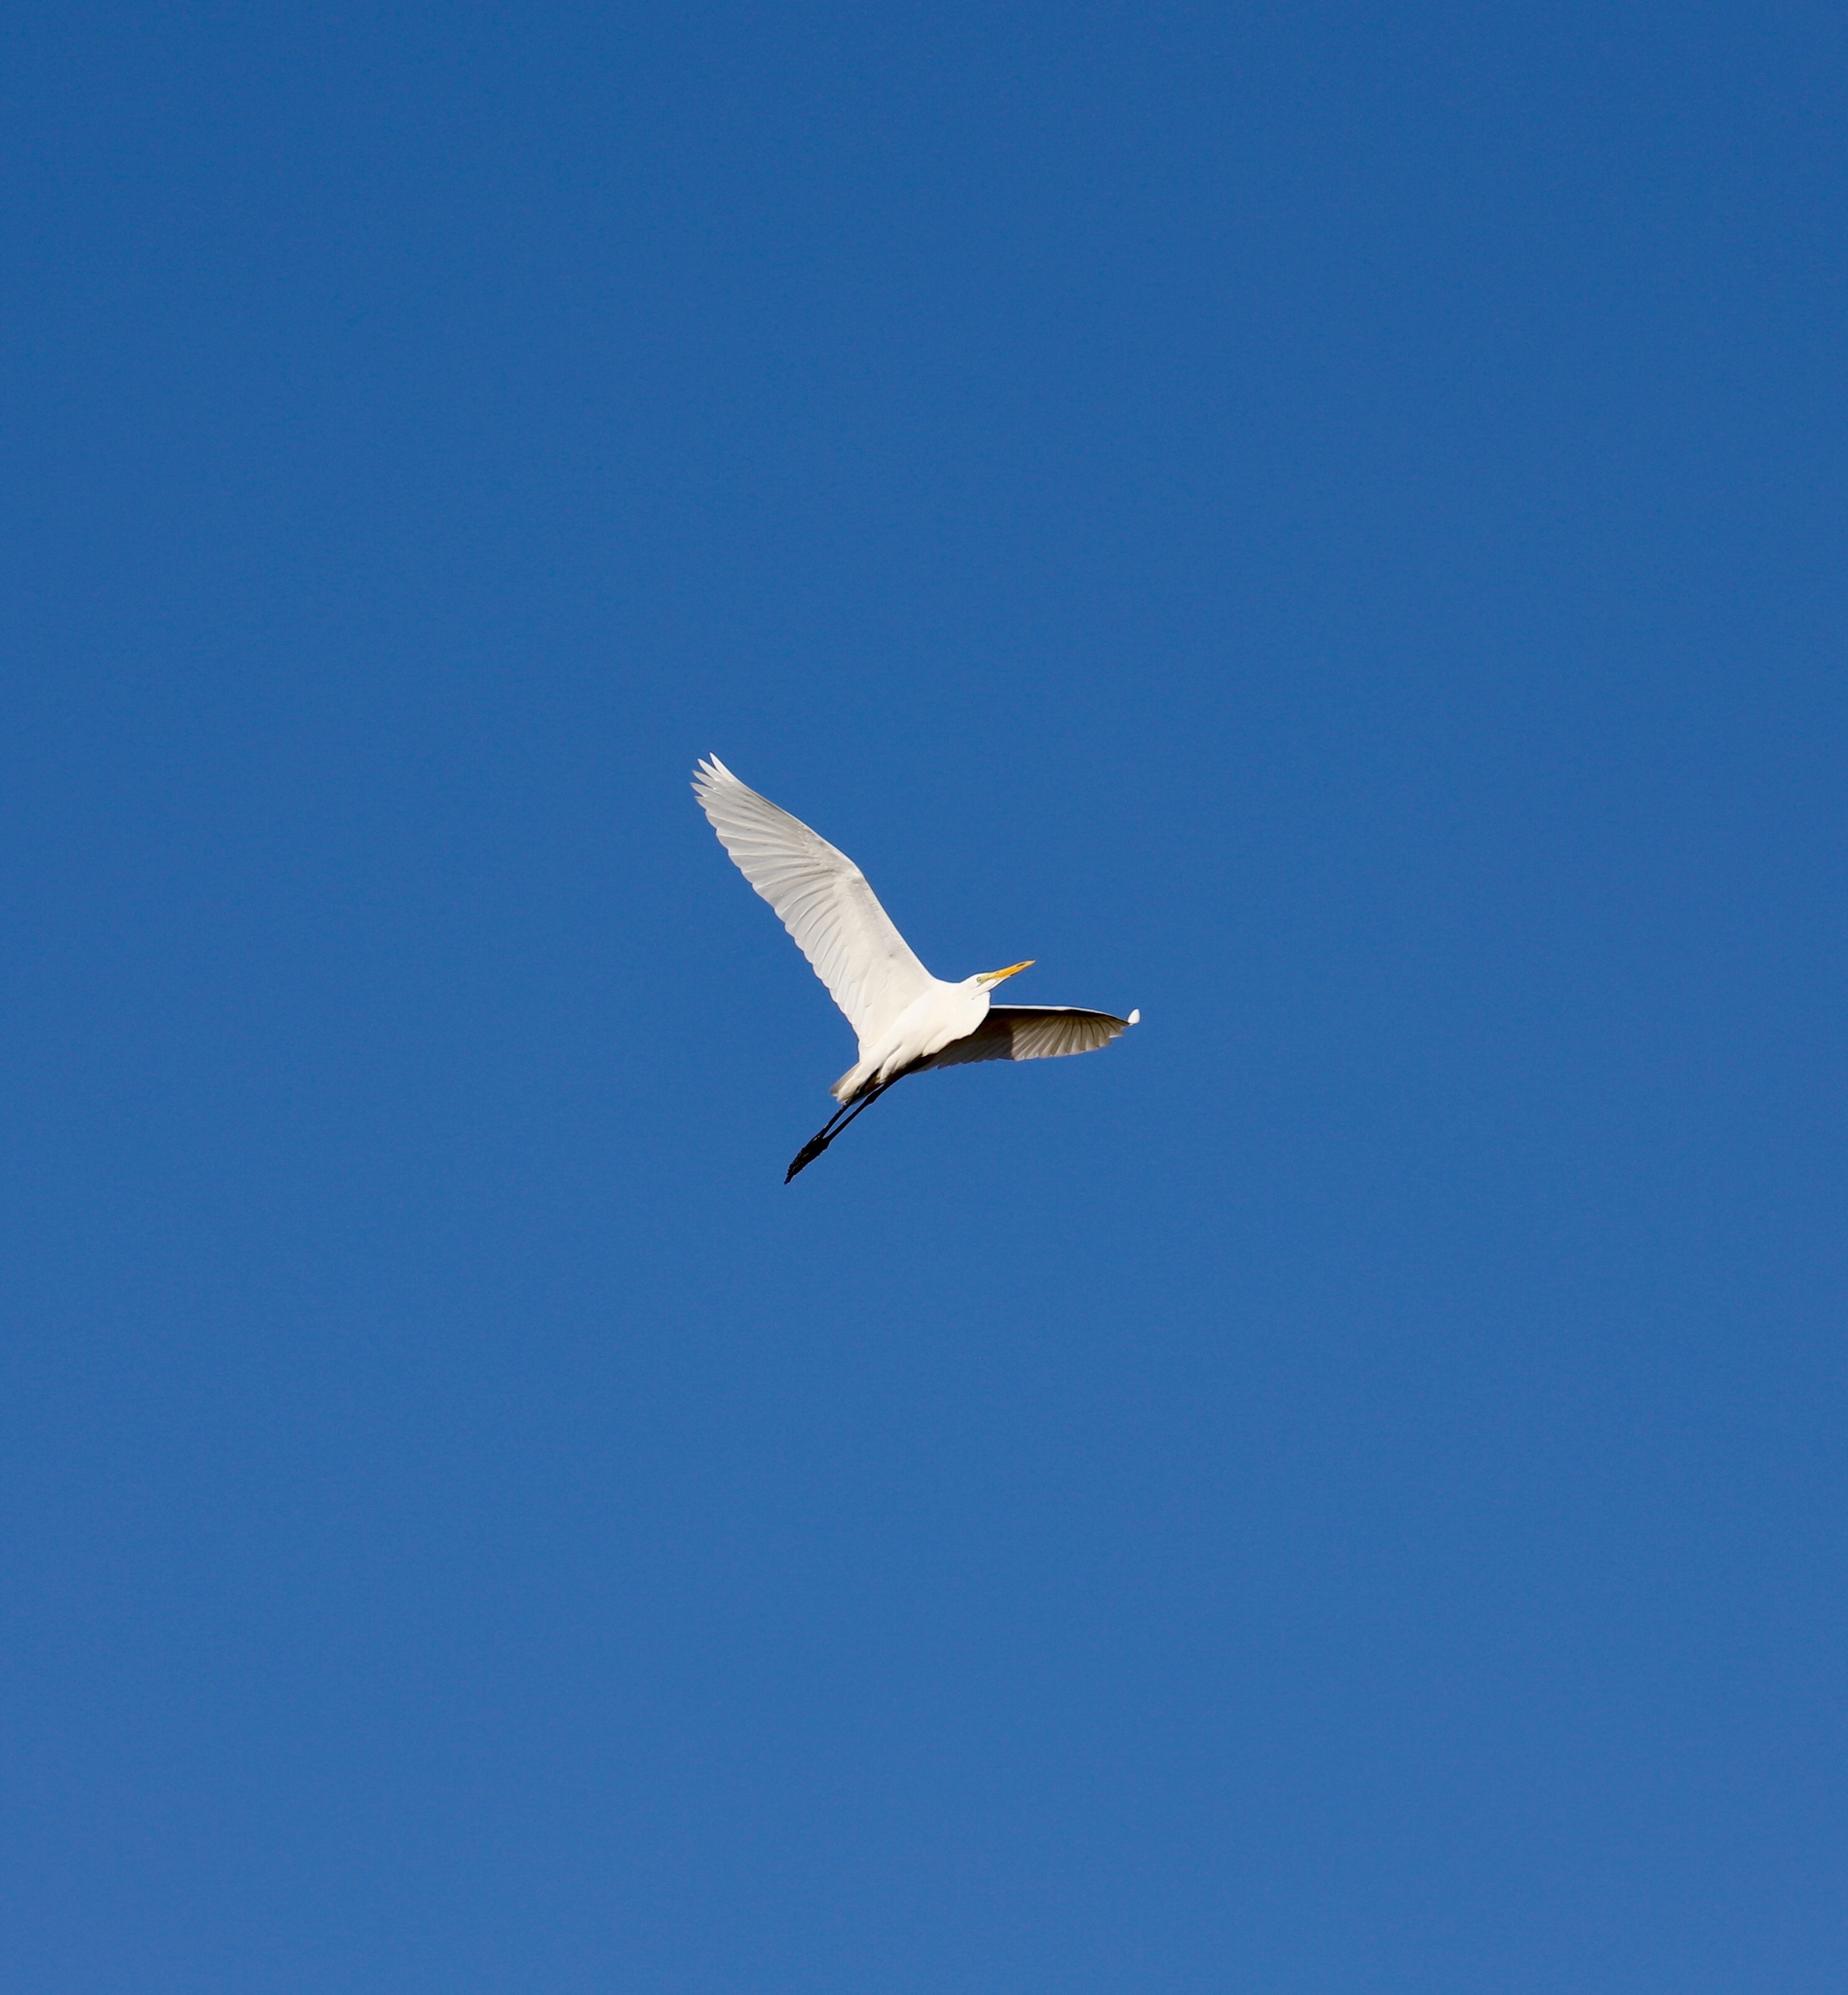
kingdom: Animalia
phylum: Chordata
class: Aves
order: Pelecaniformes
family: Ardeidae
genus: Ardea
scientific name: Ardea alba
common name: Great egret
